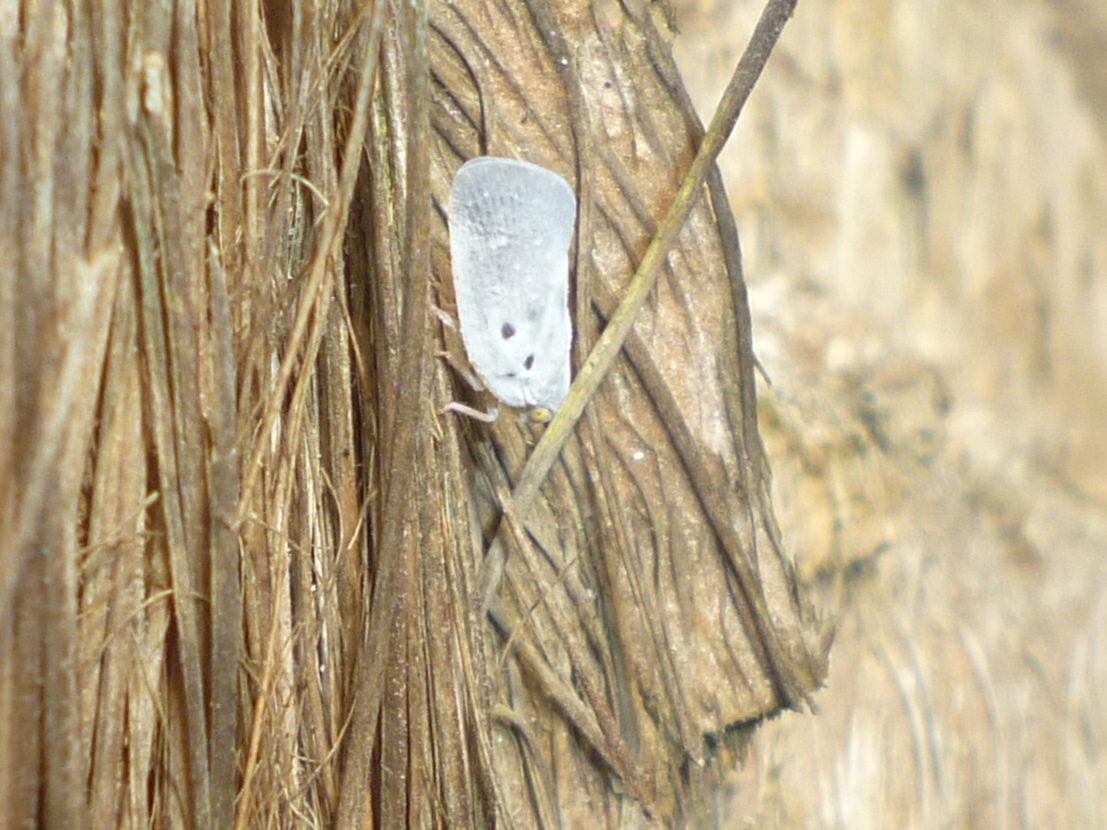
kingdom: Animalia
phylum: Arthropoda
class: Insecta
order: Hemiptera
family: Flatidae
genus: Metcalfa
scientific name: Metcalfa pruinosa
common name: Citrus flatid planthopper
